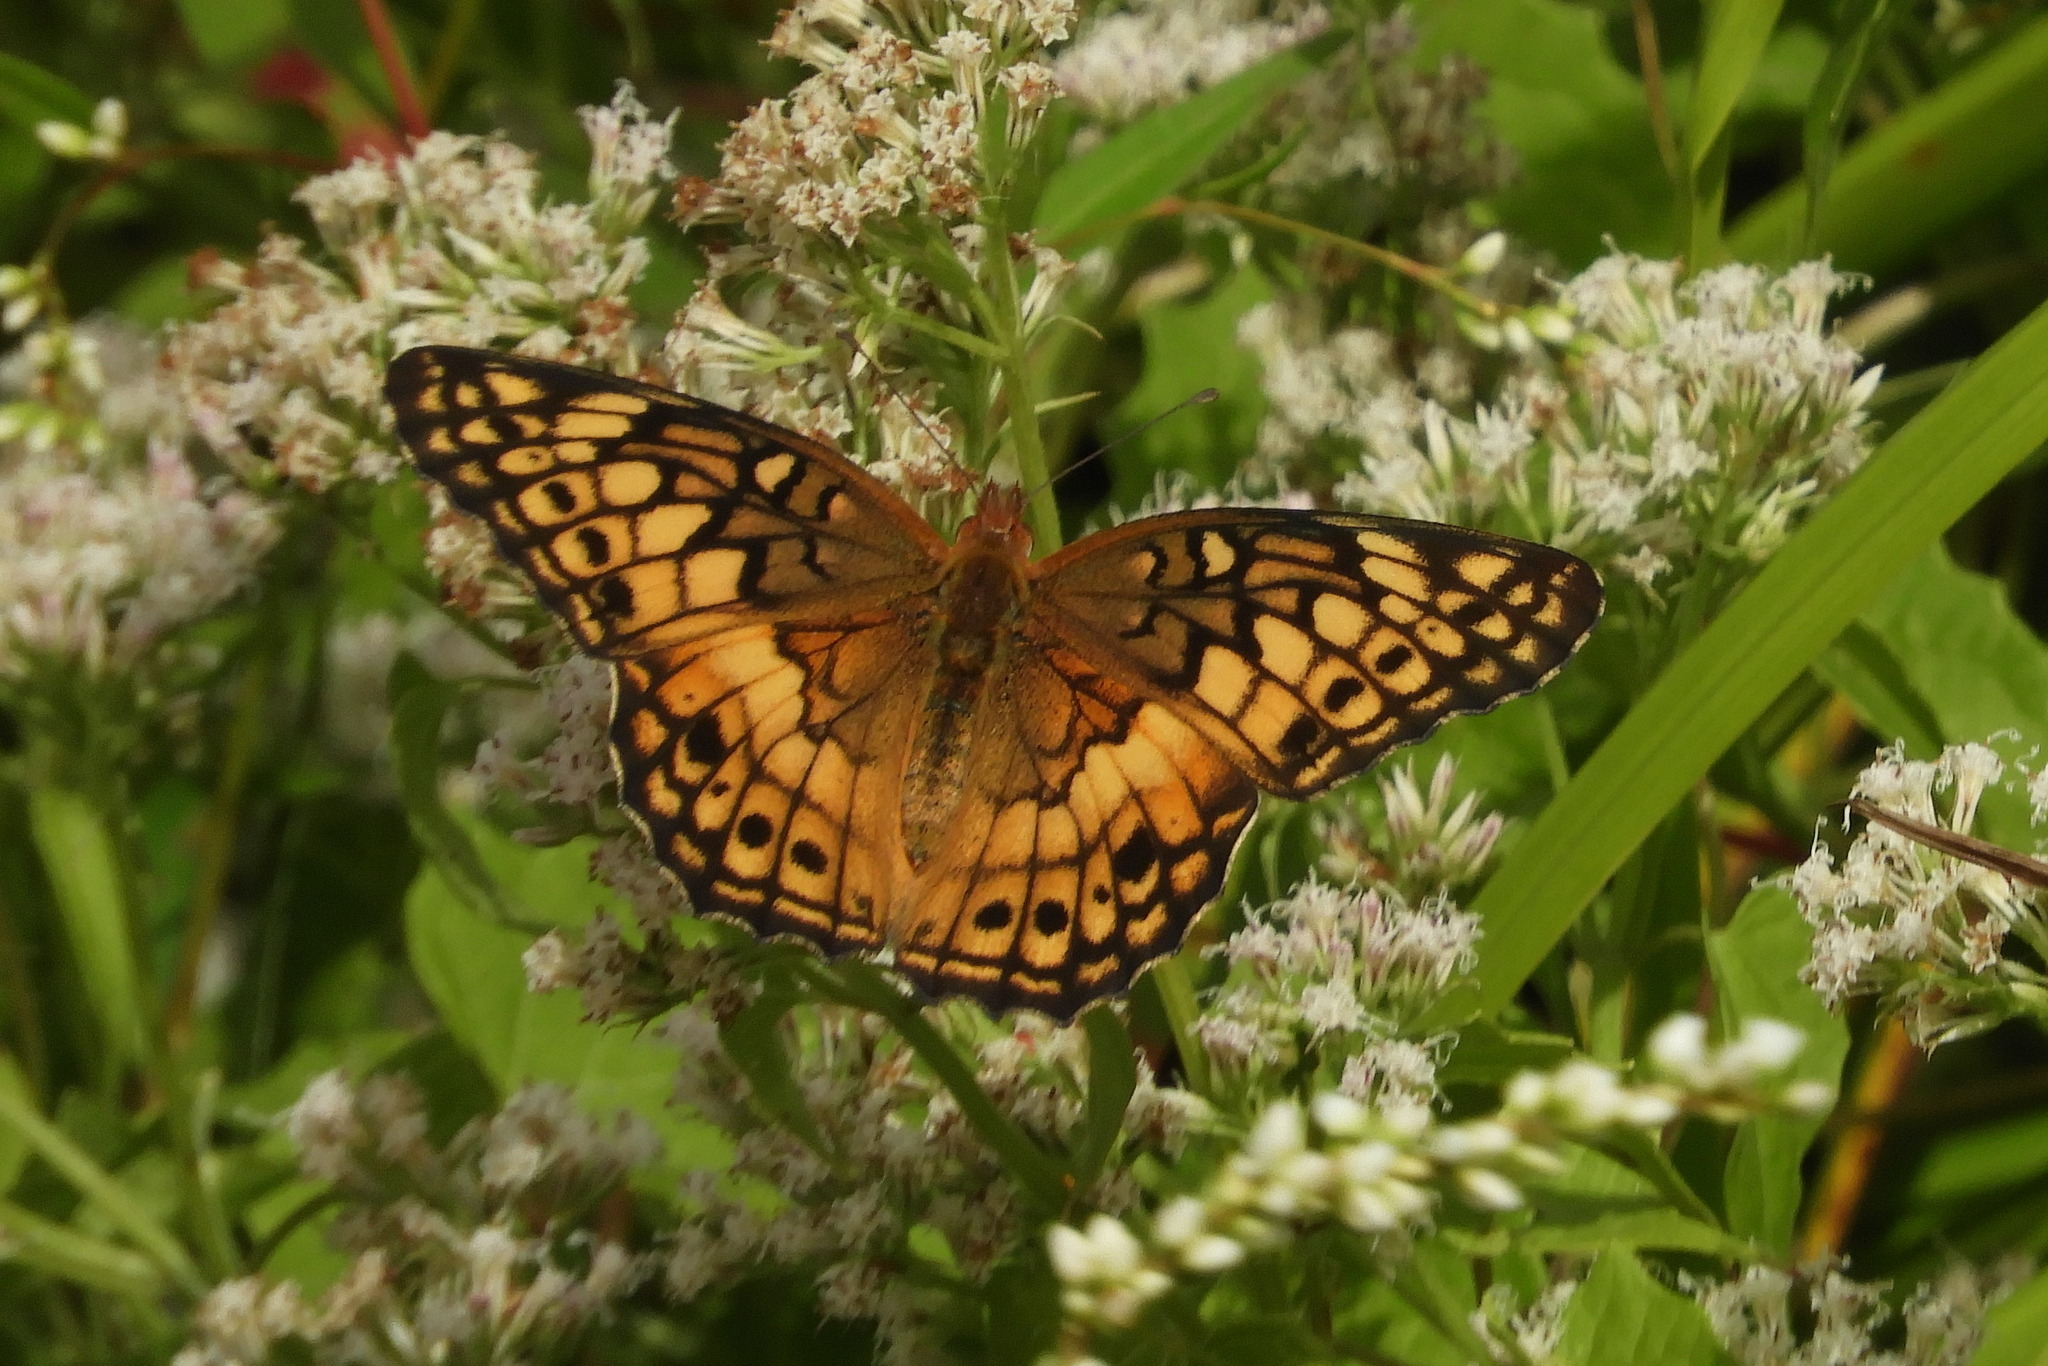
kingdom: Animalia
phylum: Arthropoda
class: Insecta
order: Lepidoptera
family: Nymphalidae
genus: Euptoieta
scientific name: Euptoieta claudia
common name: Variegated fritillary
